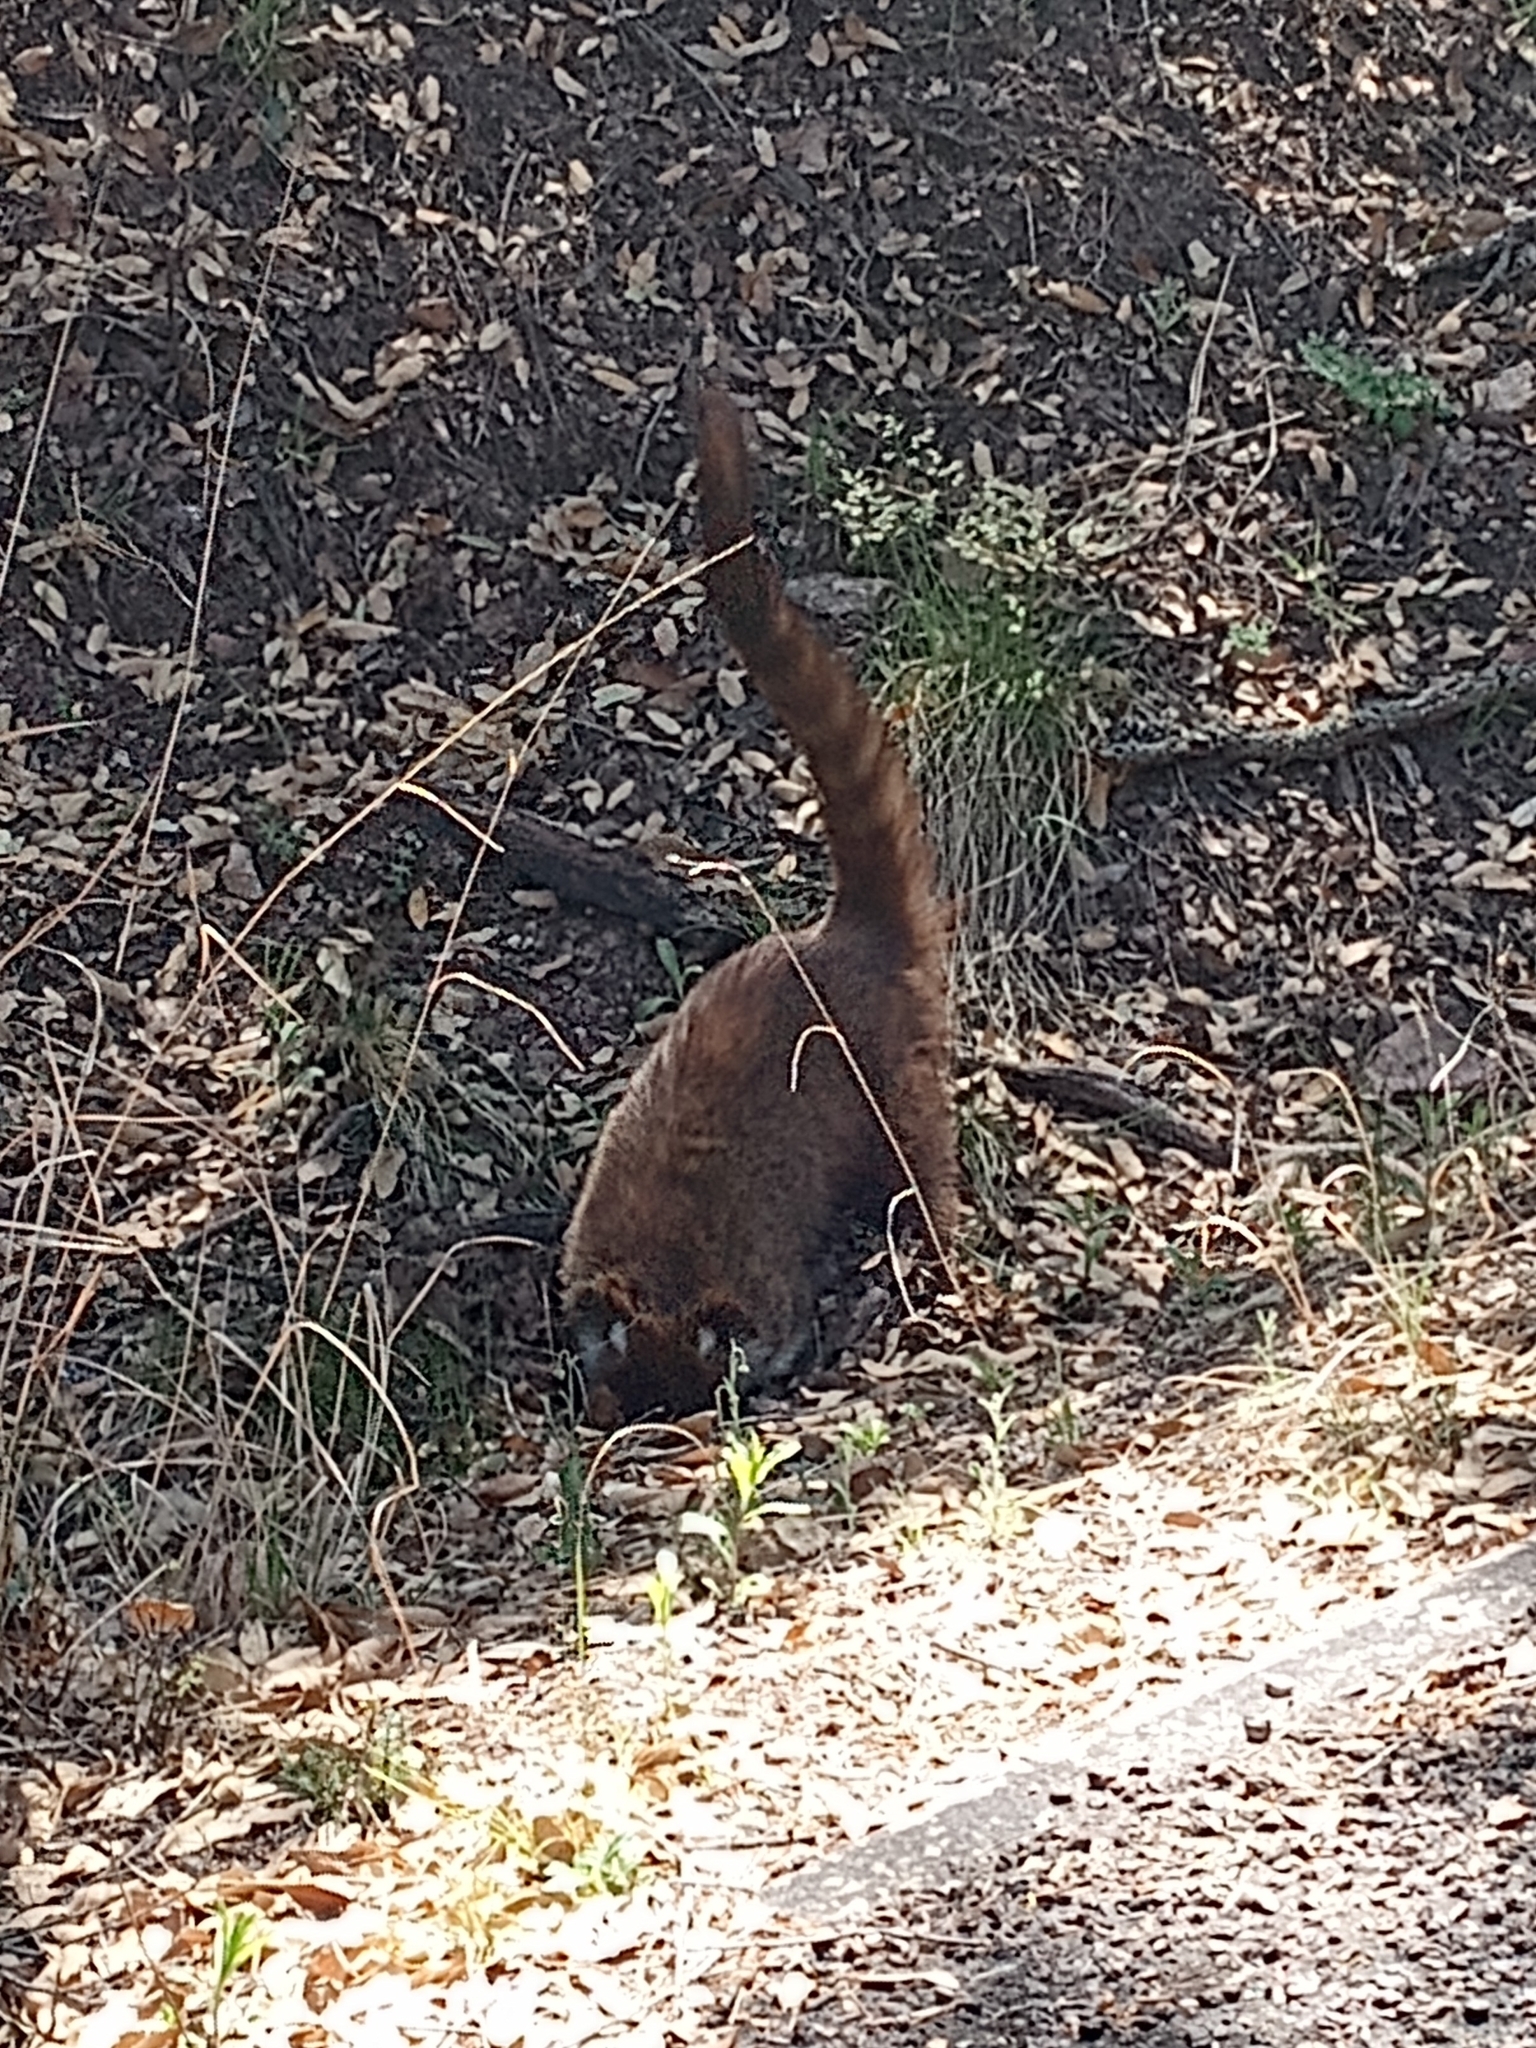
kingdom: Animalia
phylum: Chordata
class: Mammalia
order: Carnivora
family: Procyonidae
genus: Nasua
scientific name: Nasua narica
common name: White-nosed coati
